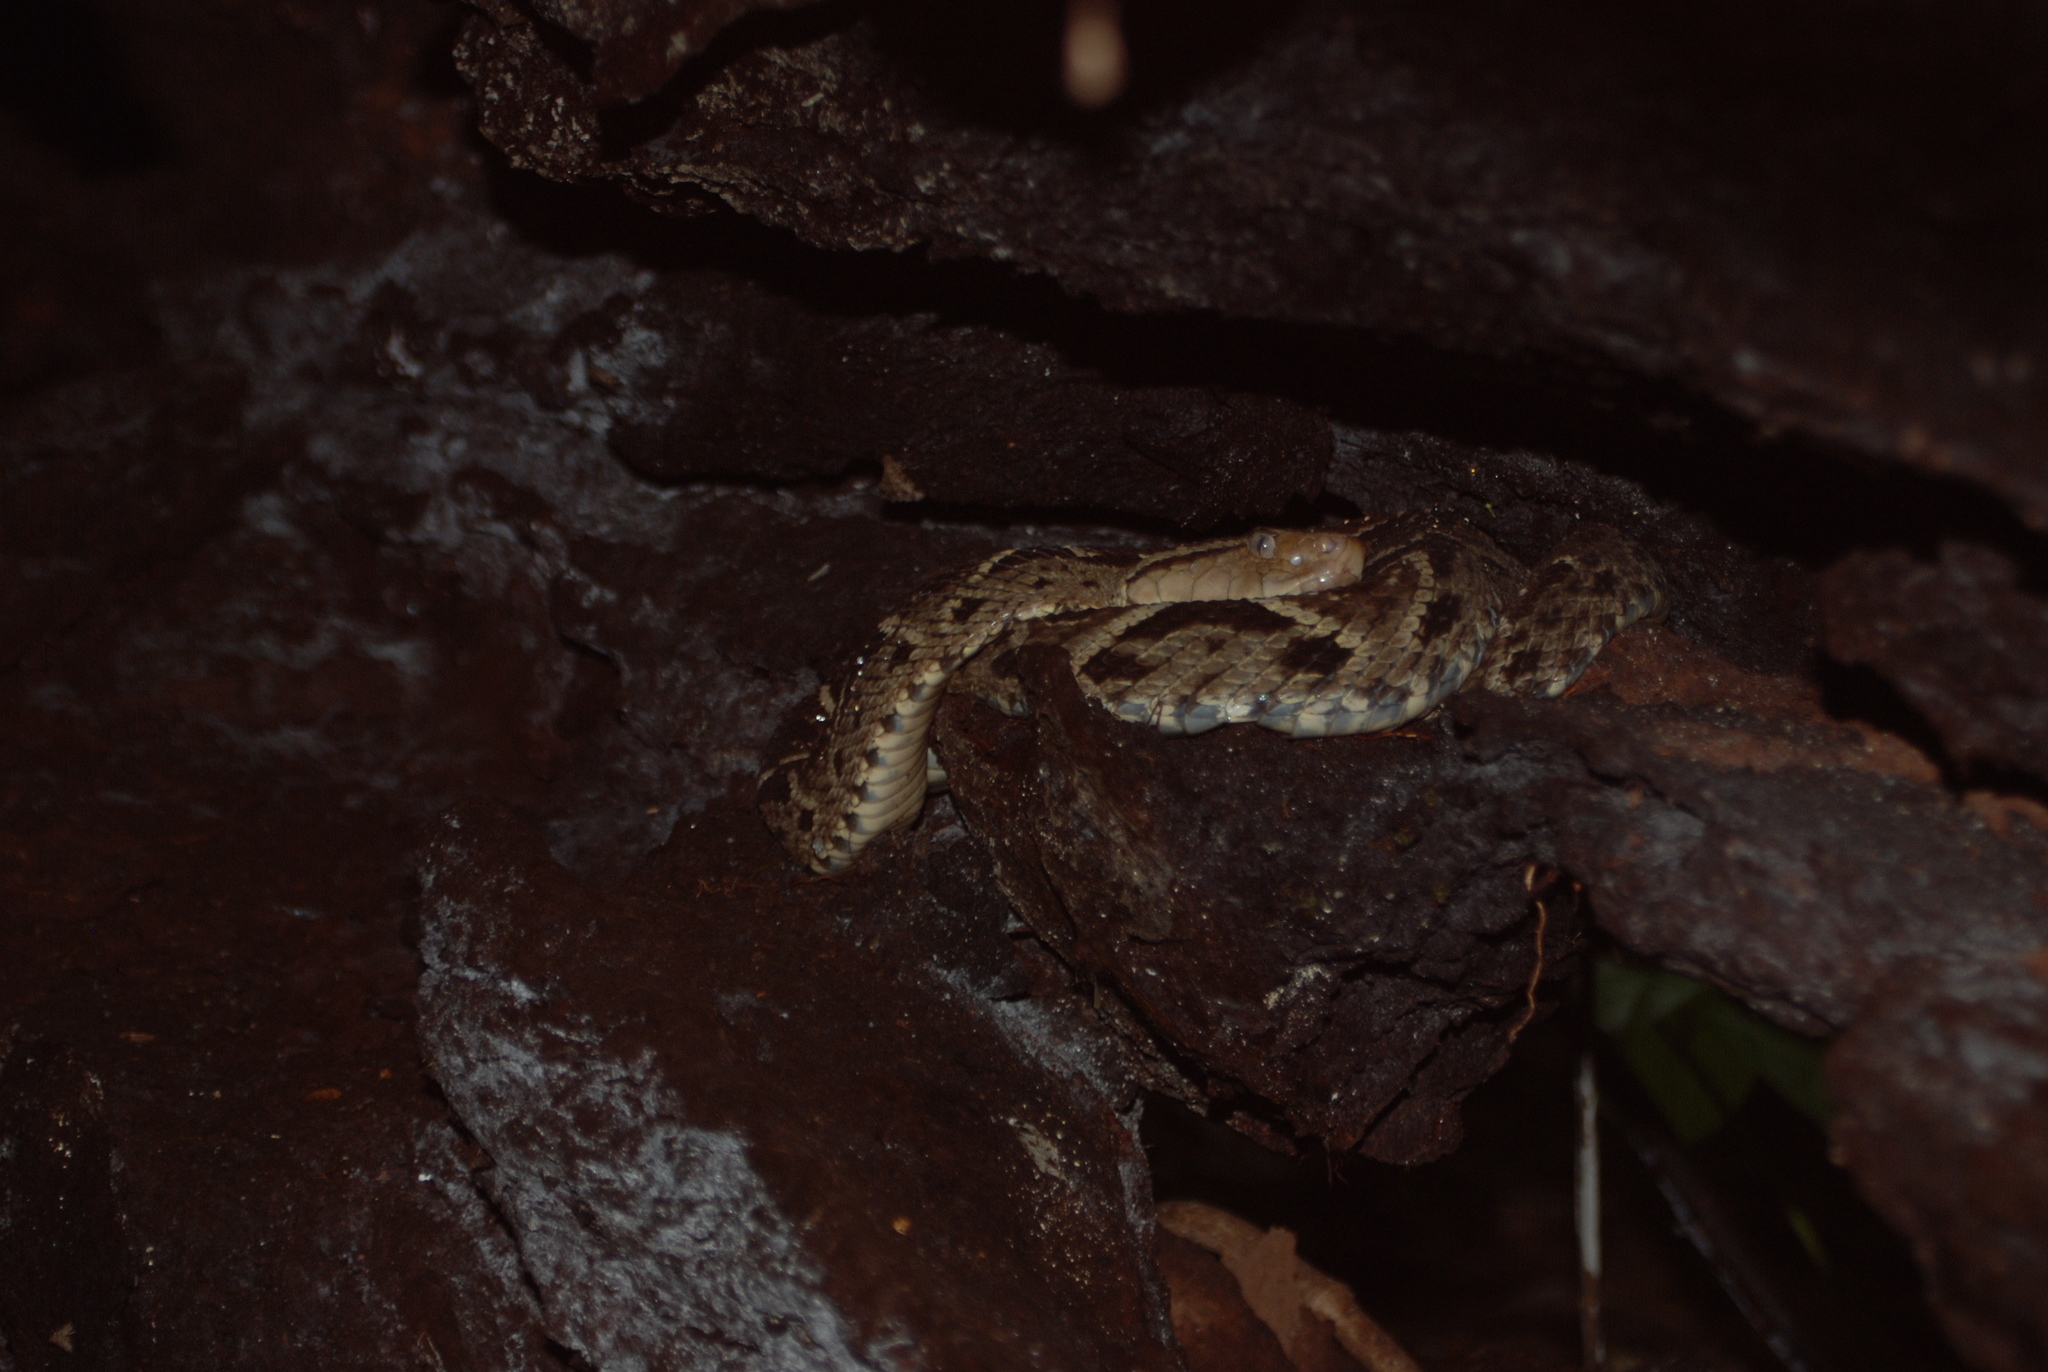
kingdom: Animalia
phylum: Chordata
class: Squamata
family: Viperidae
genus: Bothrops
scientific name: Bothrops asper
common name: Terciopelo
